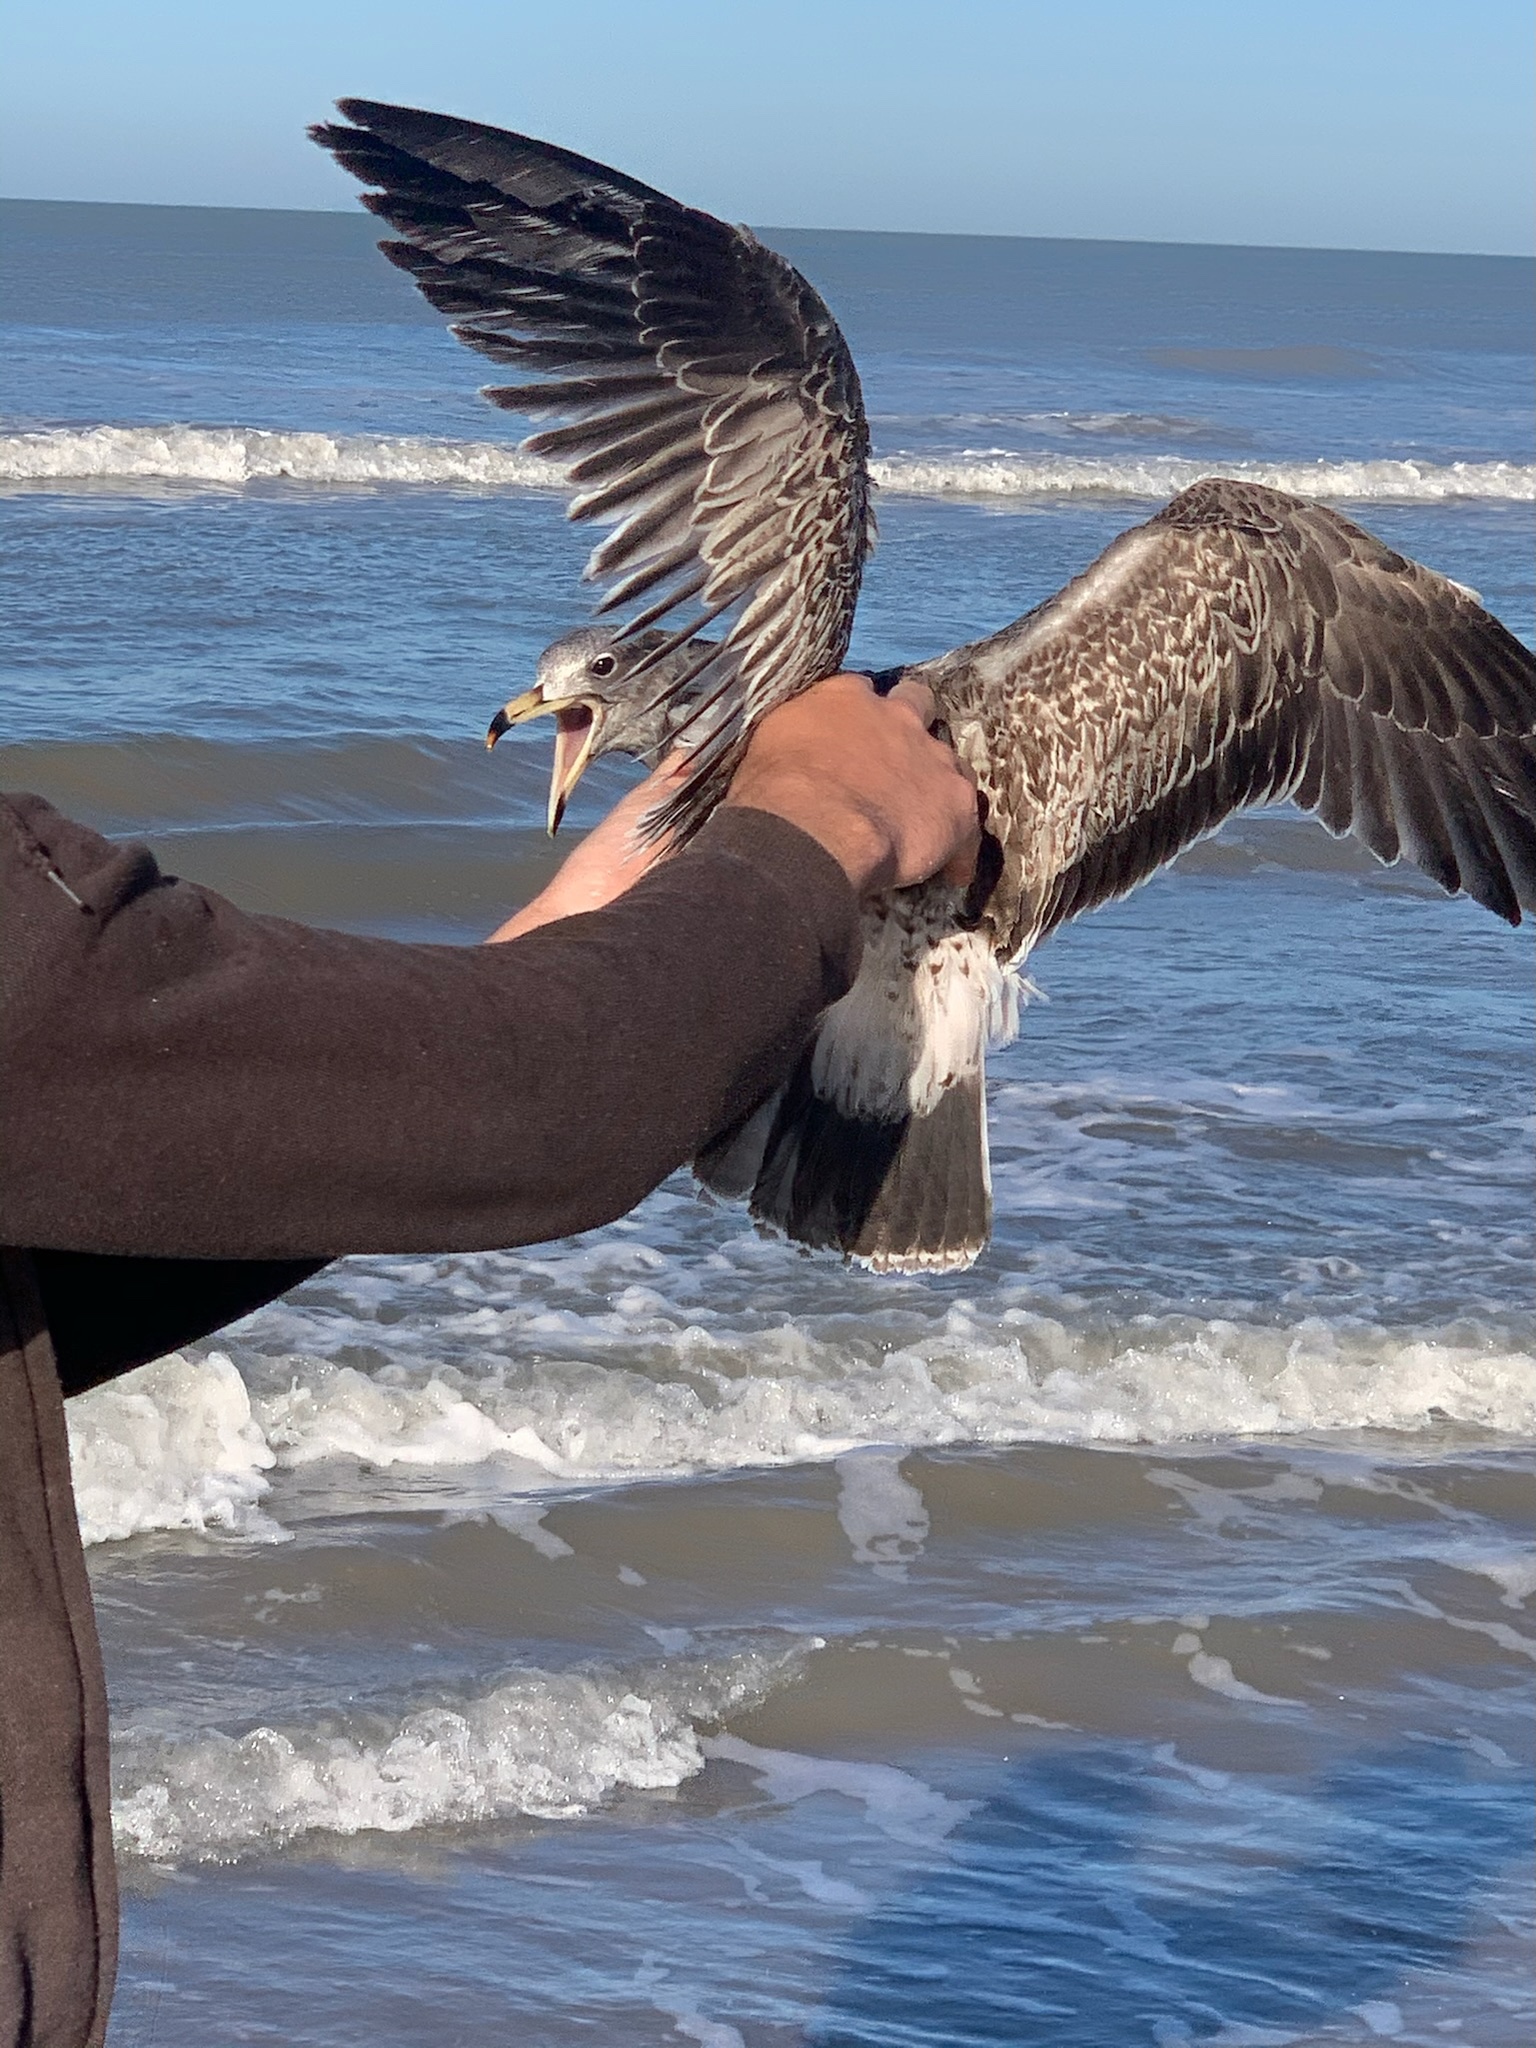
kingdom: Animalia
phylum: Chordata
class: Aves
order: Charadriiformes
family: Laridae
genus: Larus
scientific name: Larus atlanticus
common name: Olrog's gull
